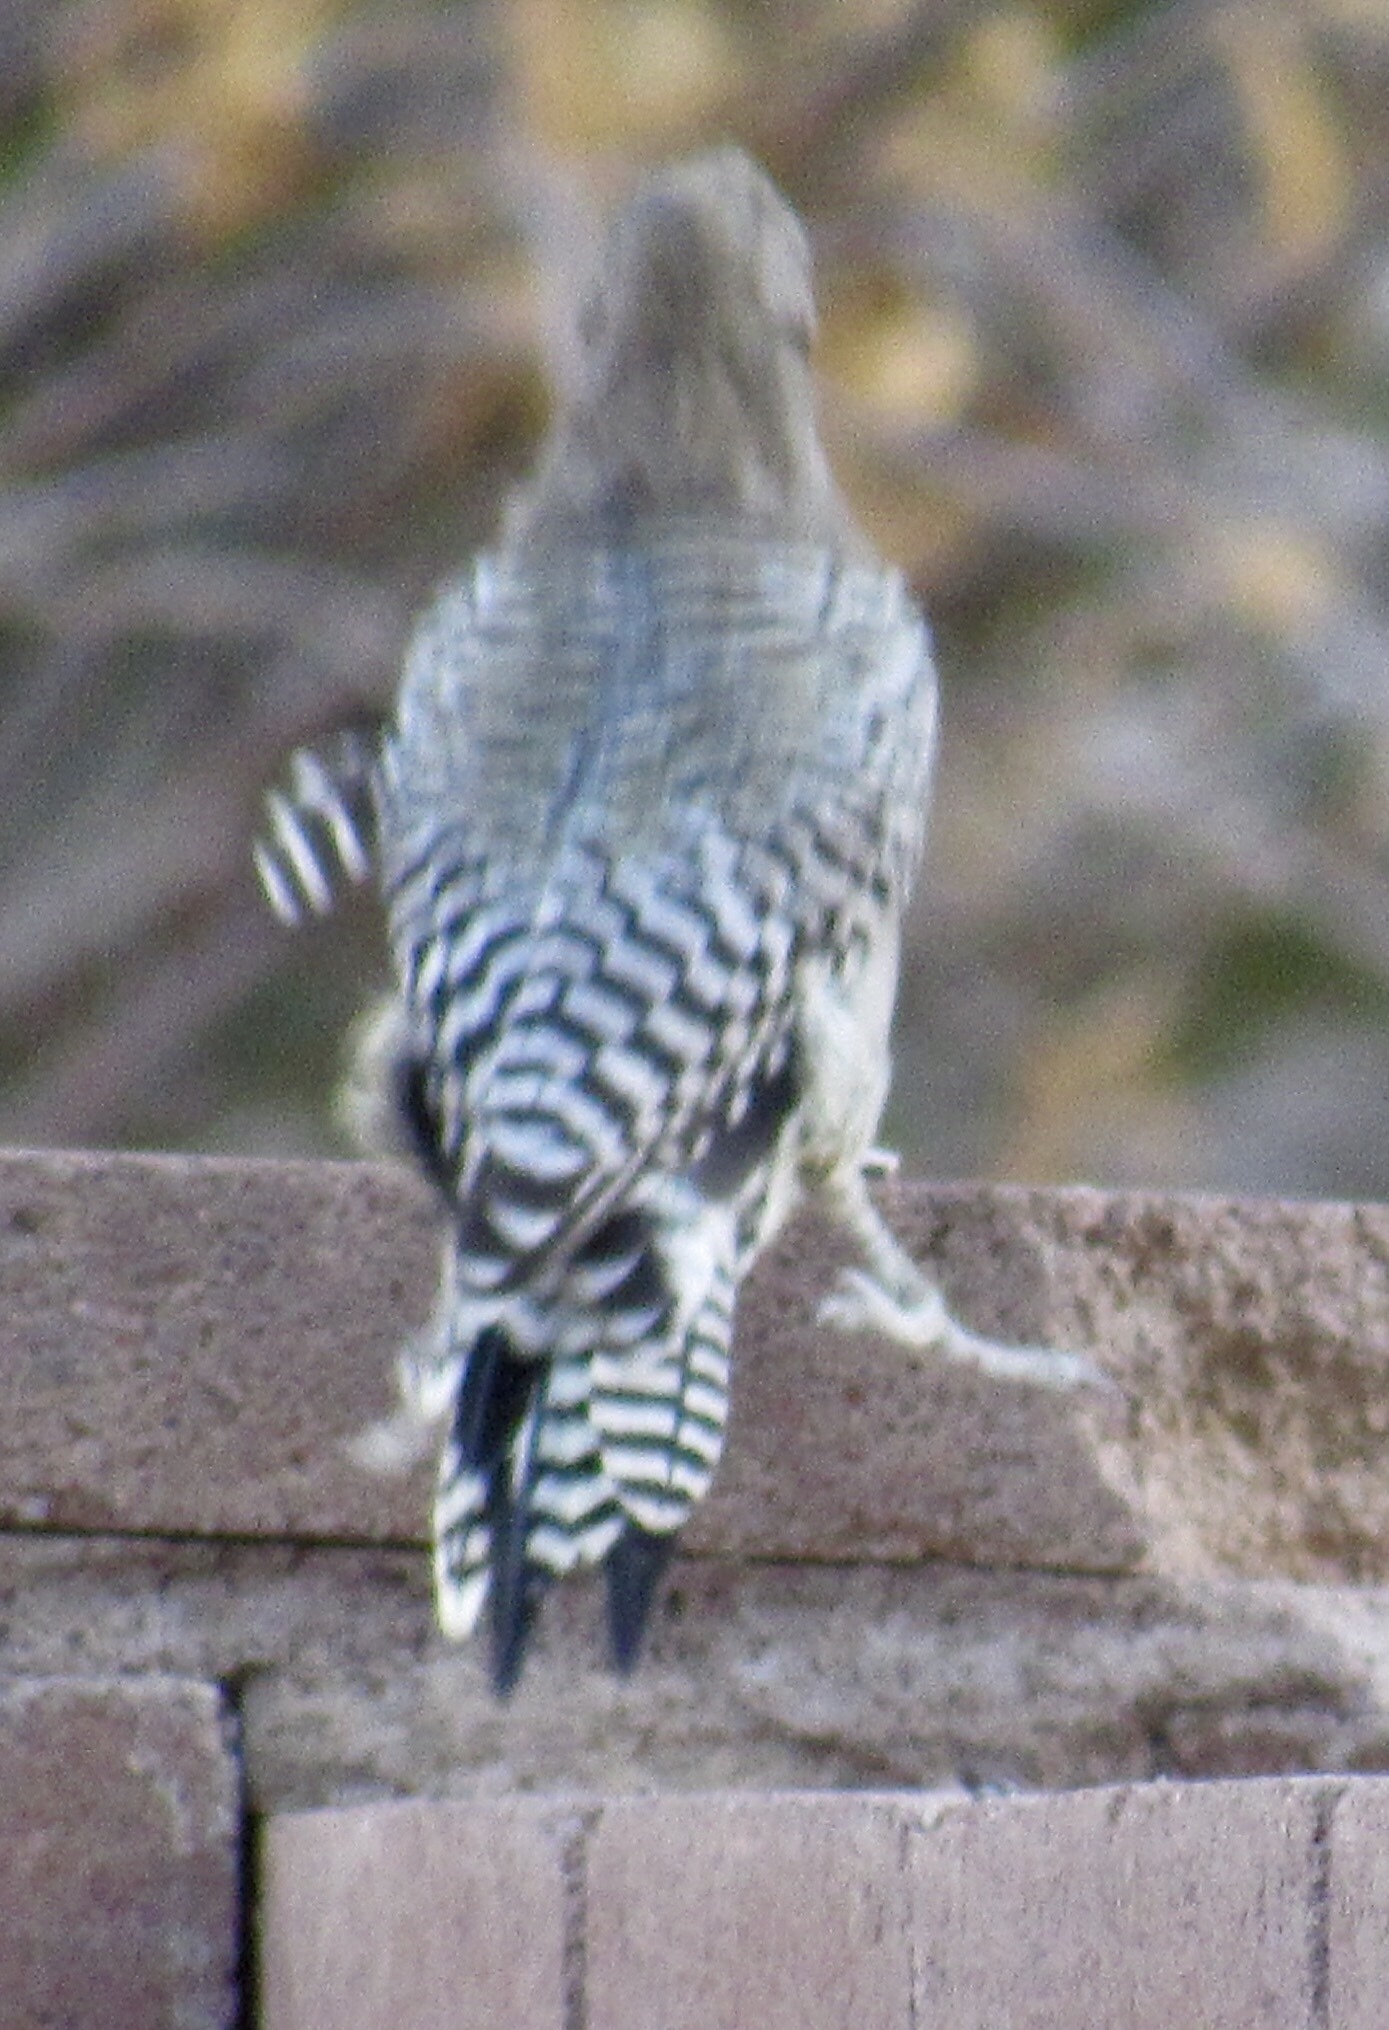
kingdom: Animalia
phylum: Chordata
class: Aves
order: Piciformes
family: Picidae
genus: Melanerpes
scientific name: Melanerpes uropygialis
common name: Gila woodpecker
